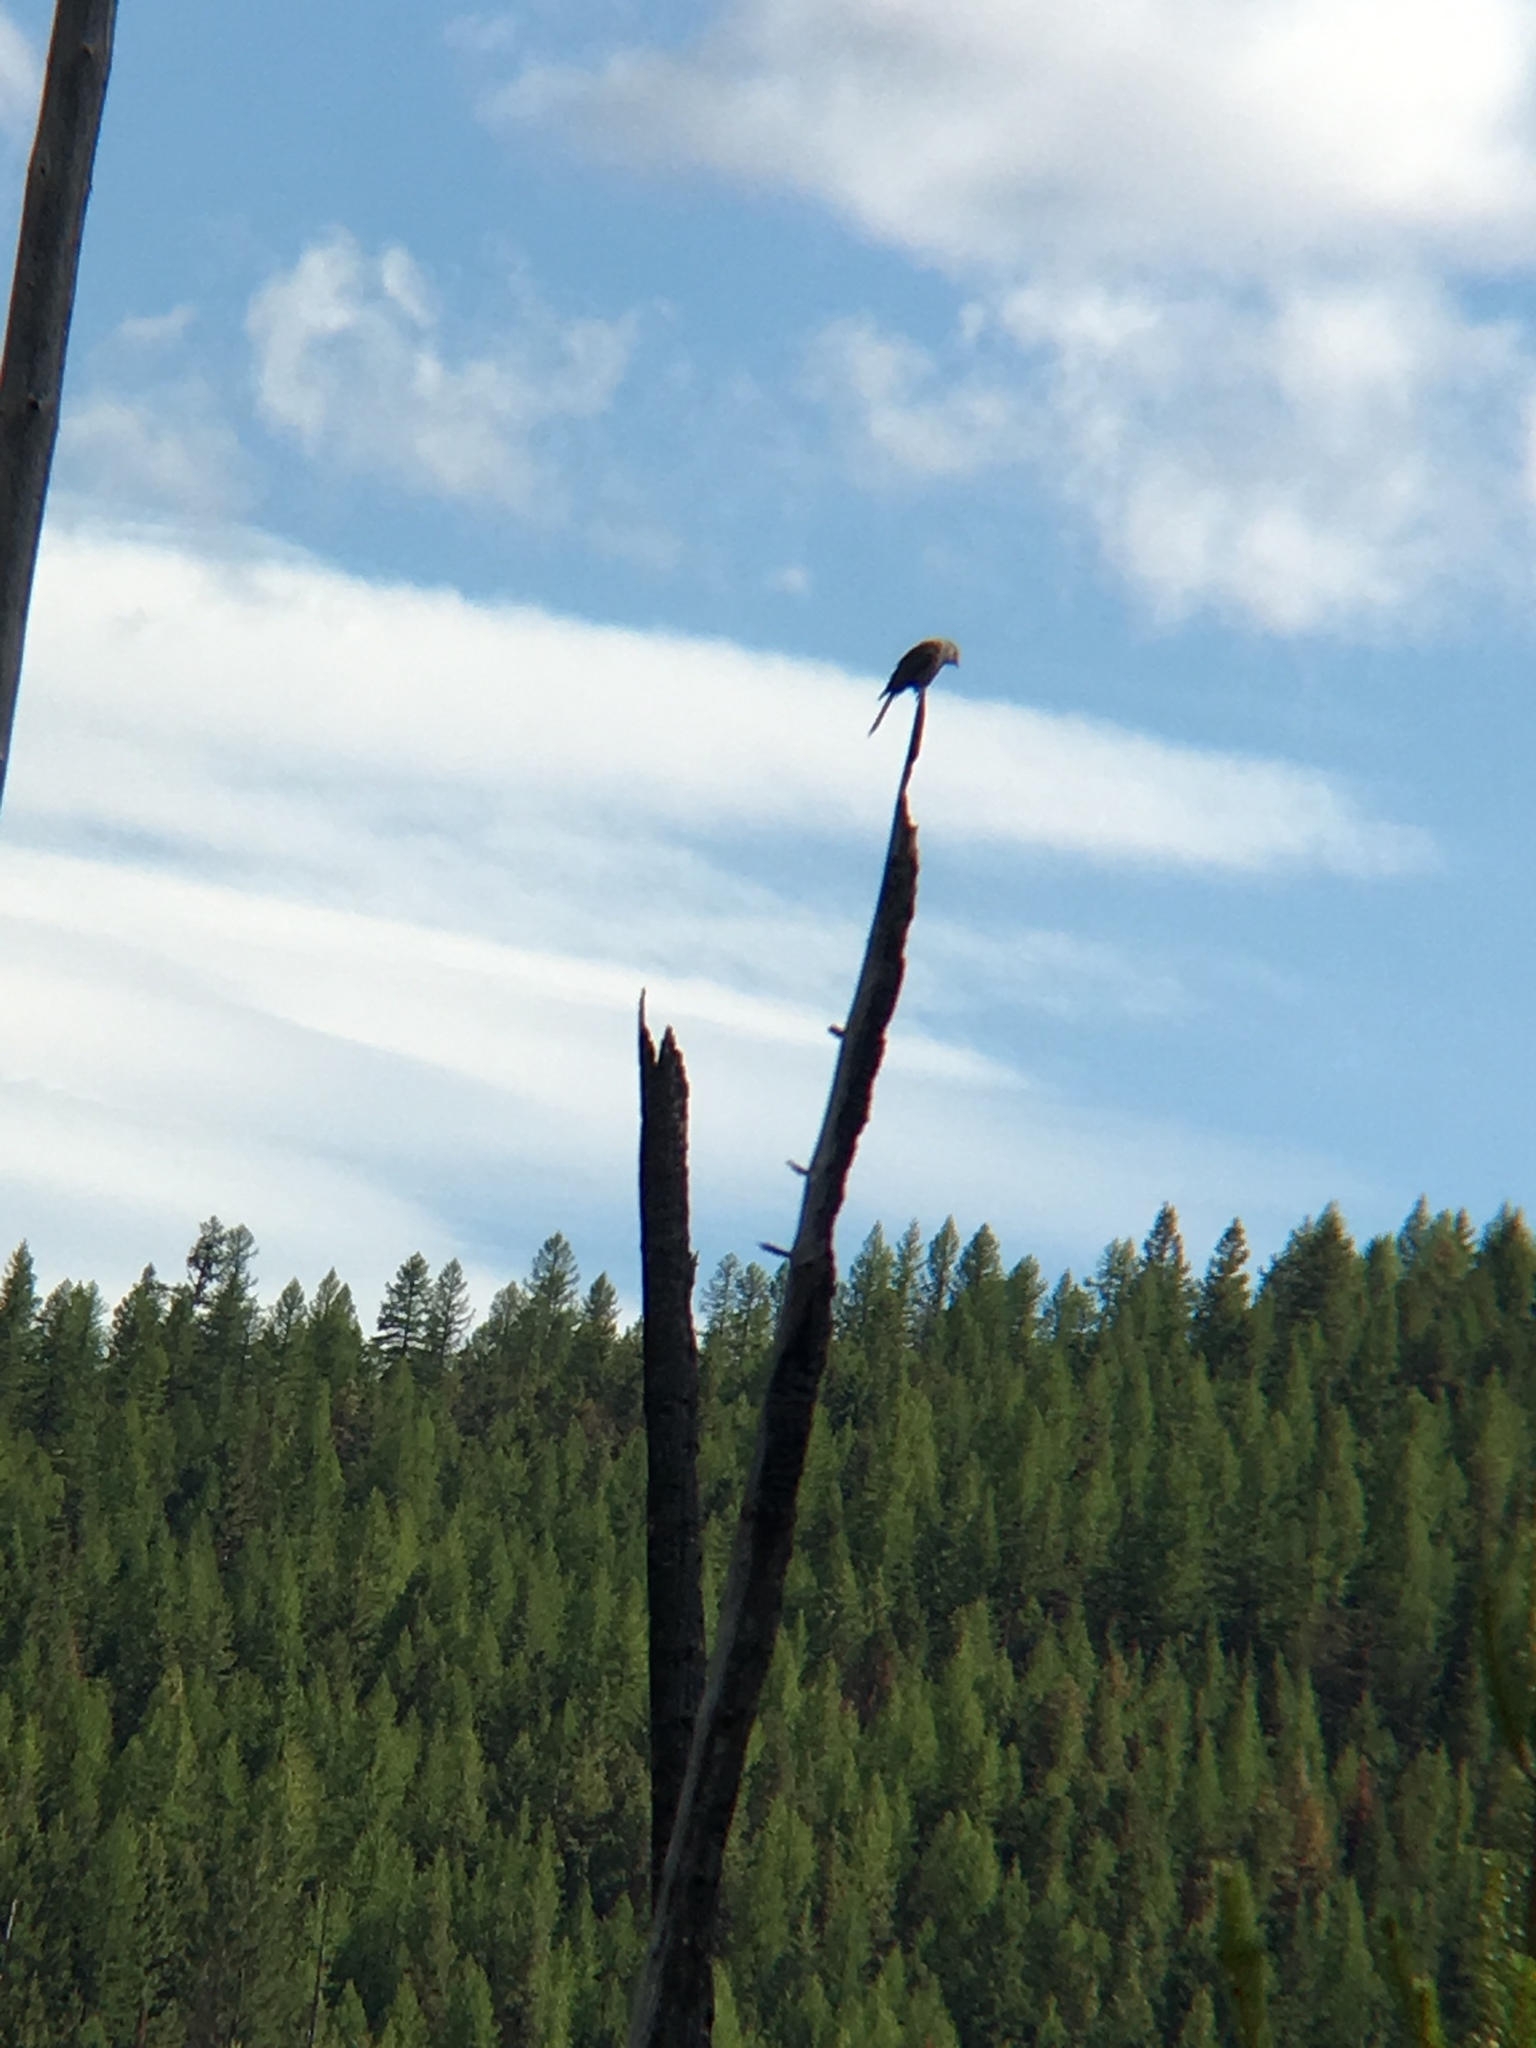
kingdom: Animalia
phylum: Chordata
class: Aves
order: Passeriformes
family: Corvidae
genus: Perisoreus
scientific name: Perisoreus canadensis
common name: Gray jay
